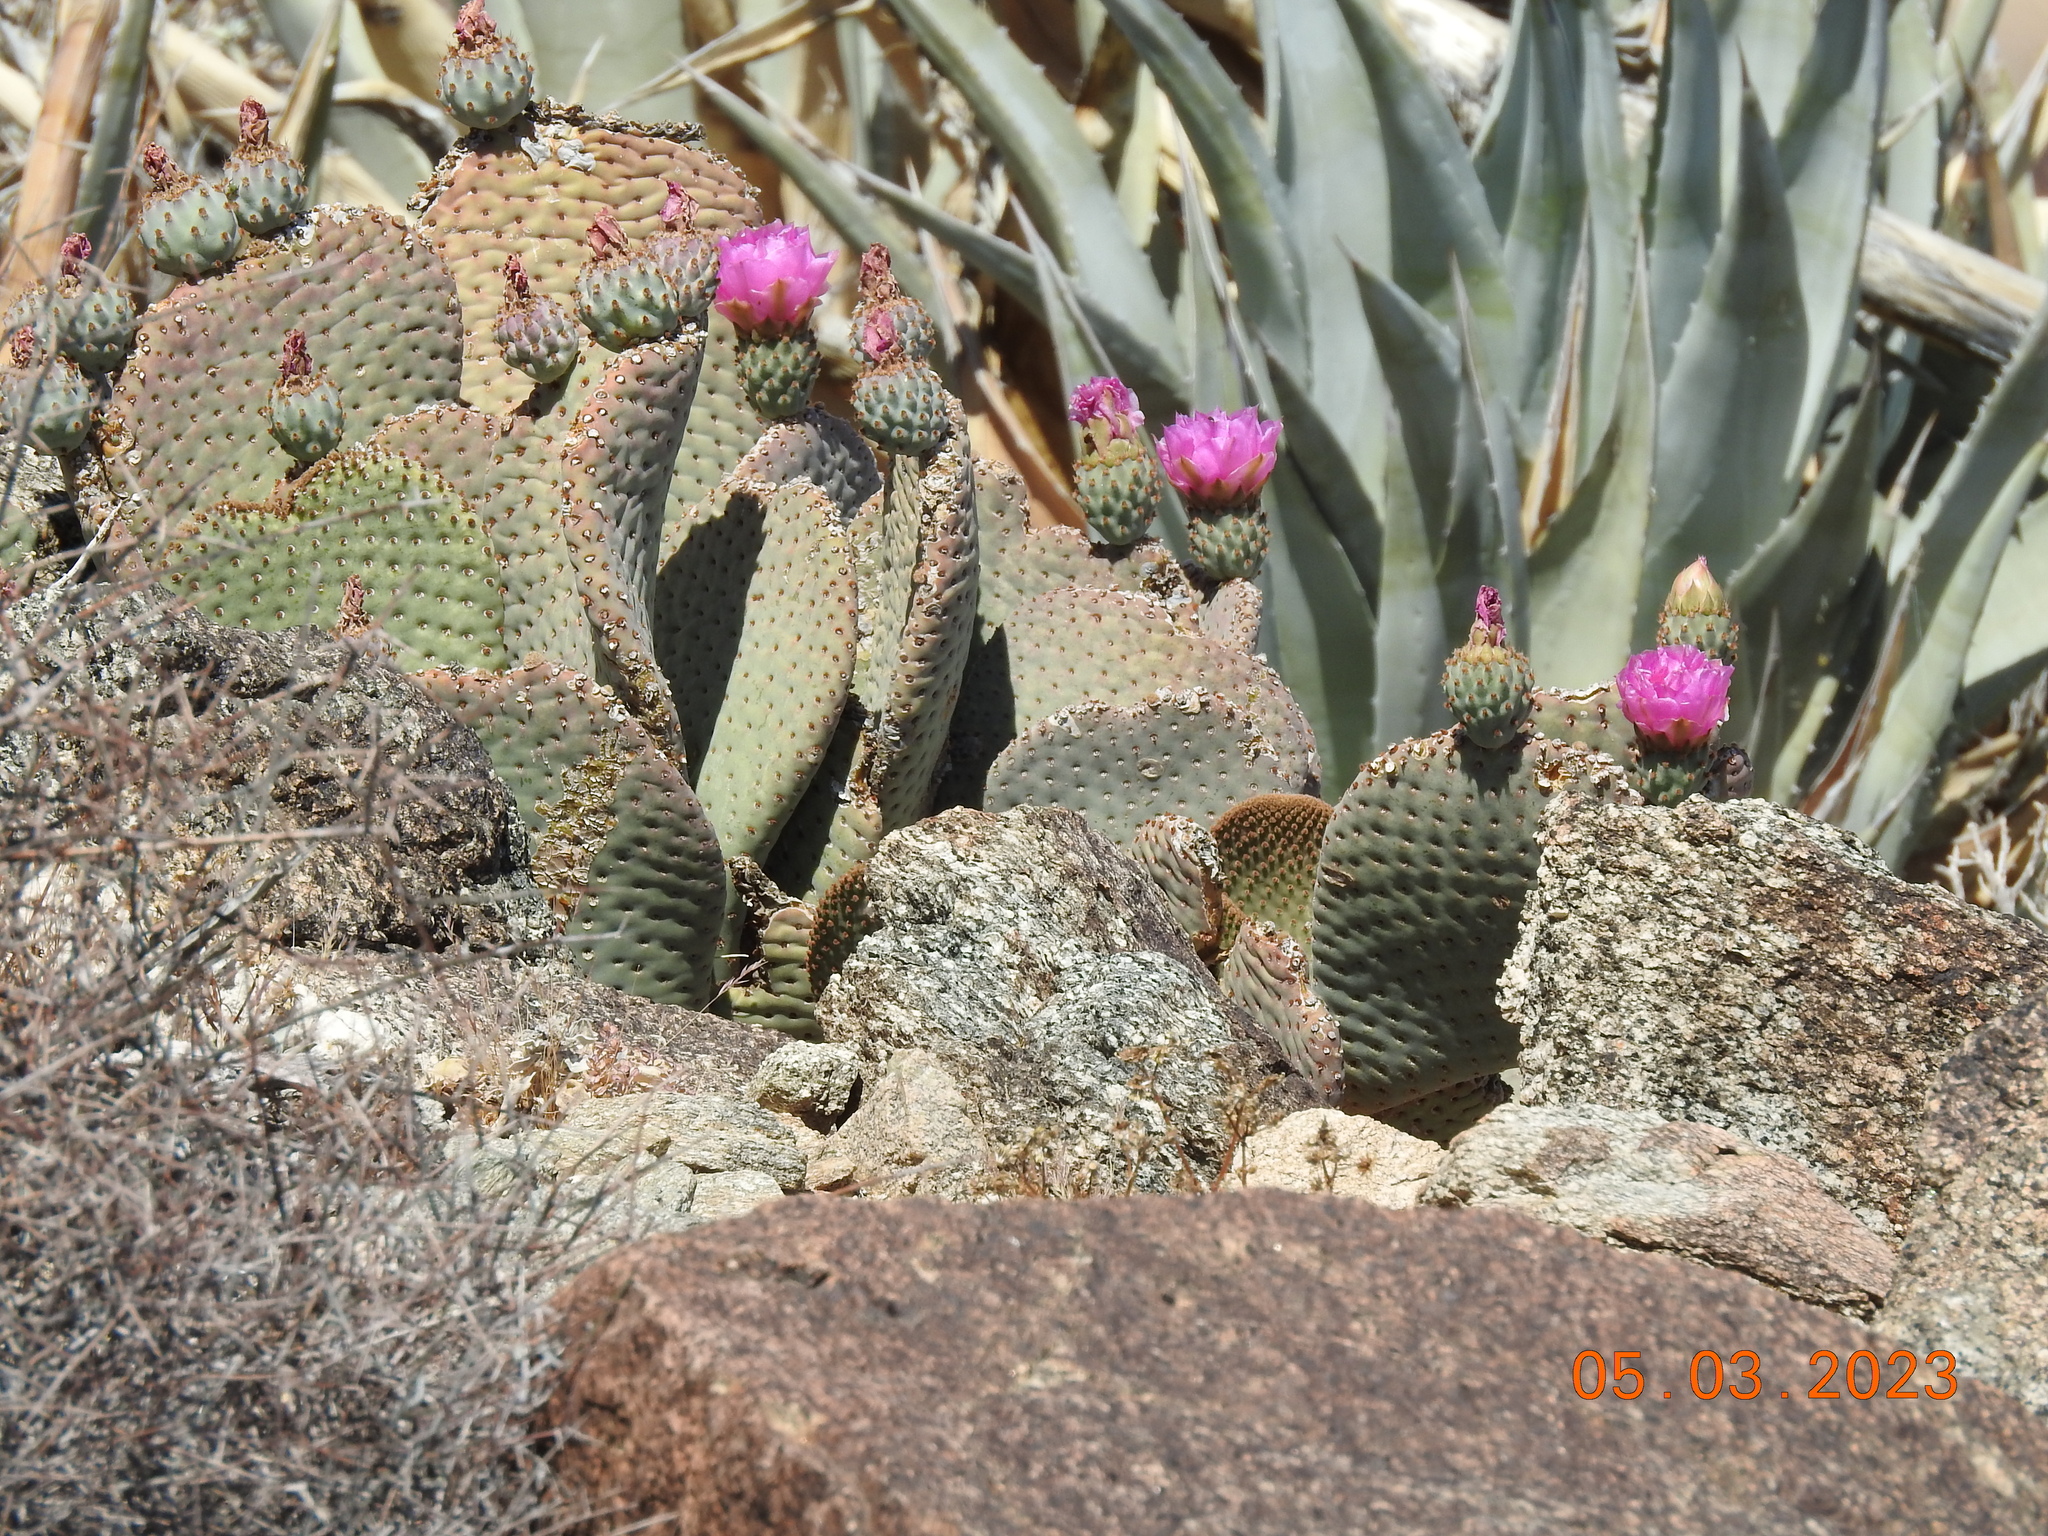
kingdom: Plantae
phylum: Tracheophyta
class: Magnoliopsida
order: Caryophyllales
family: Cactaceae
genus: Opuntia
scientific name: Opuntia basilaris
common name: Beavertail prickly-pear
